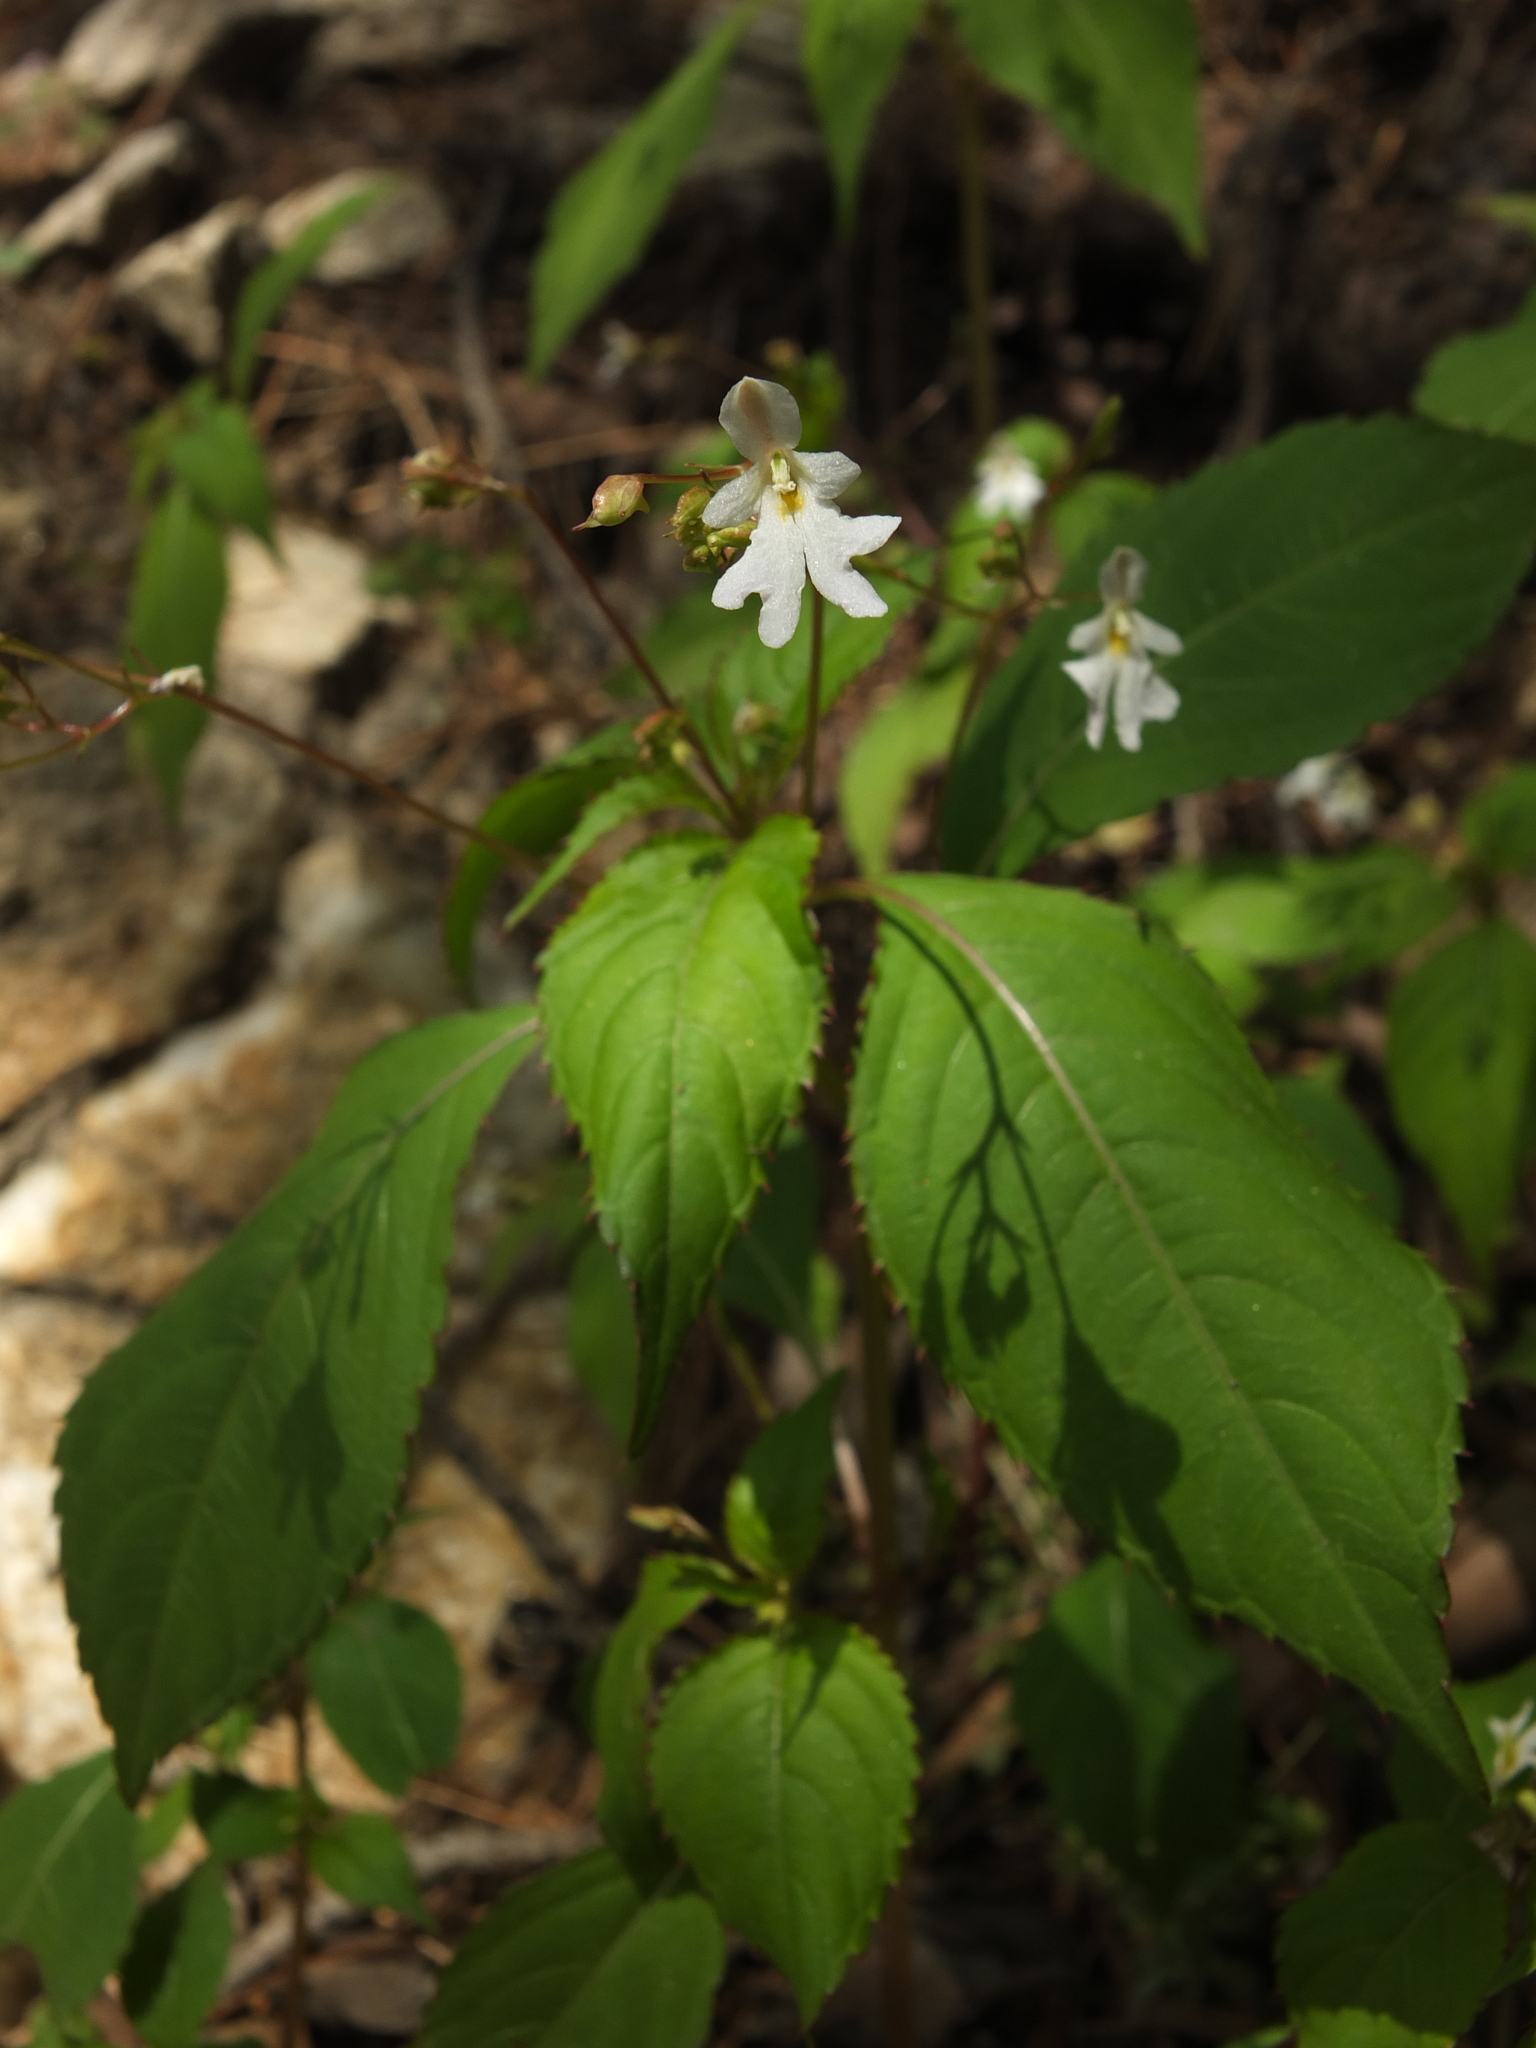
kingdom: Plantae
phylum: Tracheophyta
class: Magnoliopsida
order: Ericales
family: Balsaminaceae
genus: Impatiens
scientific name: Impatiens brachycentra
